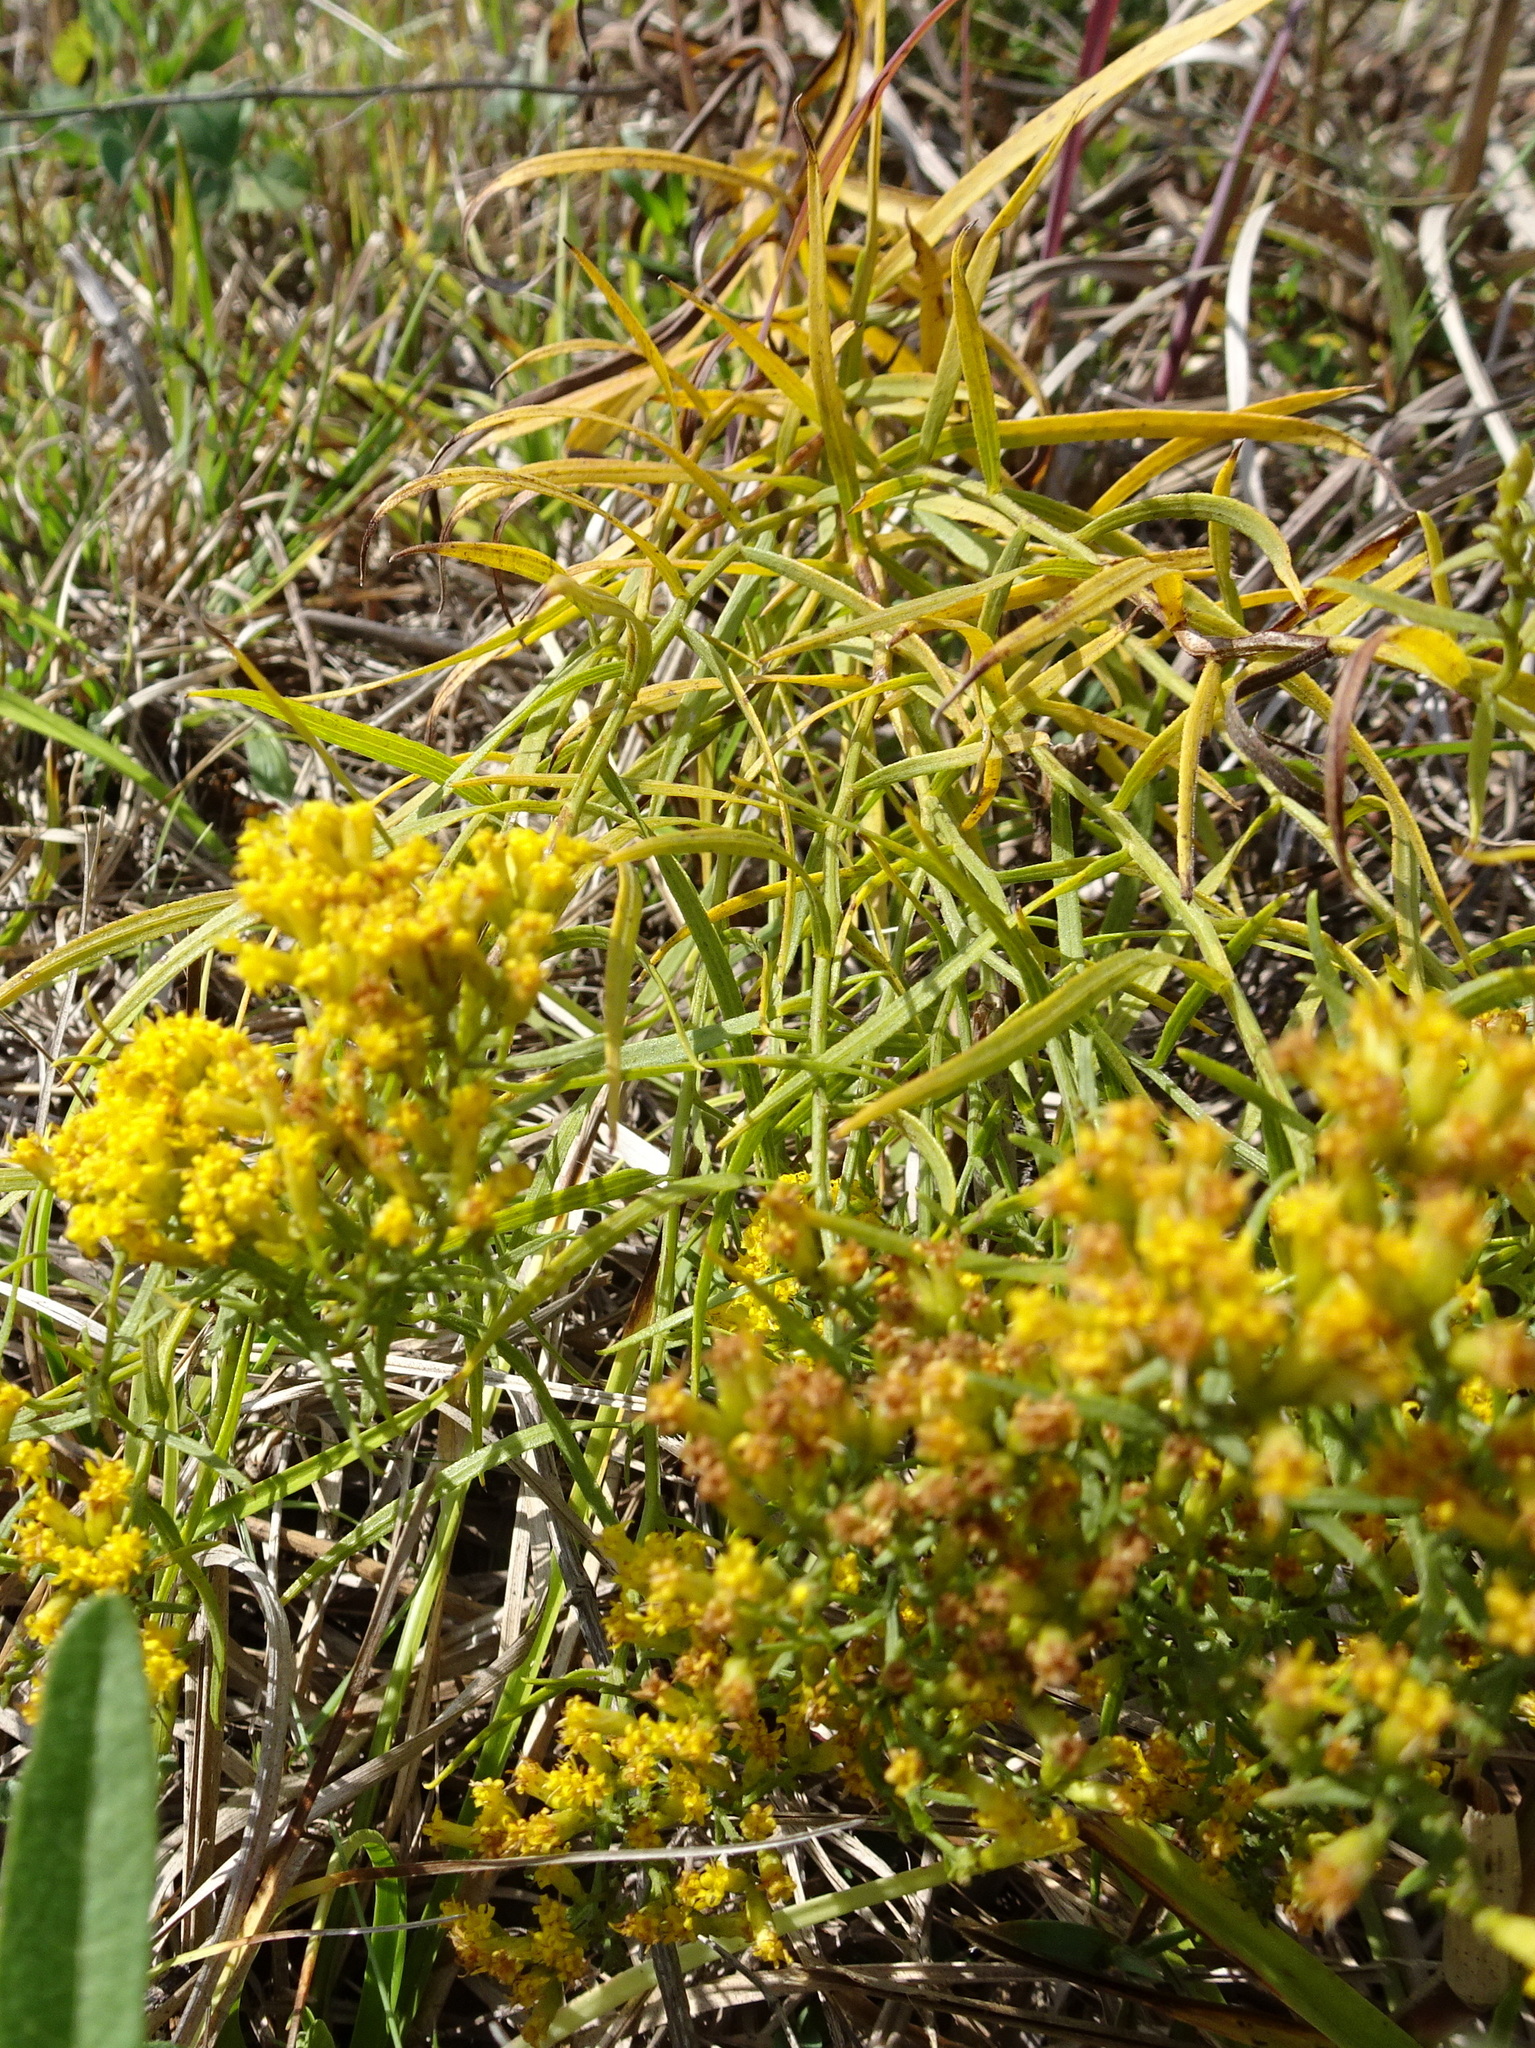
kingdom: Plantae
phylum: Tracheophyta
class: Magnoliopsida
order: Asterales
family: Asteraceae
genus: Euthamia
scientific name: Euthamia gymnospermoides
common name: Great plains goldentop
